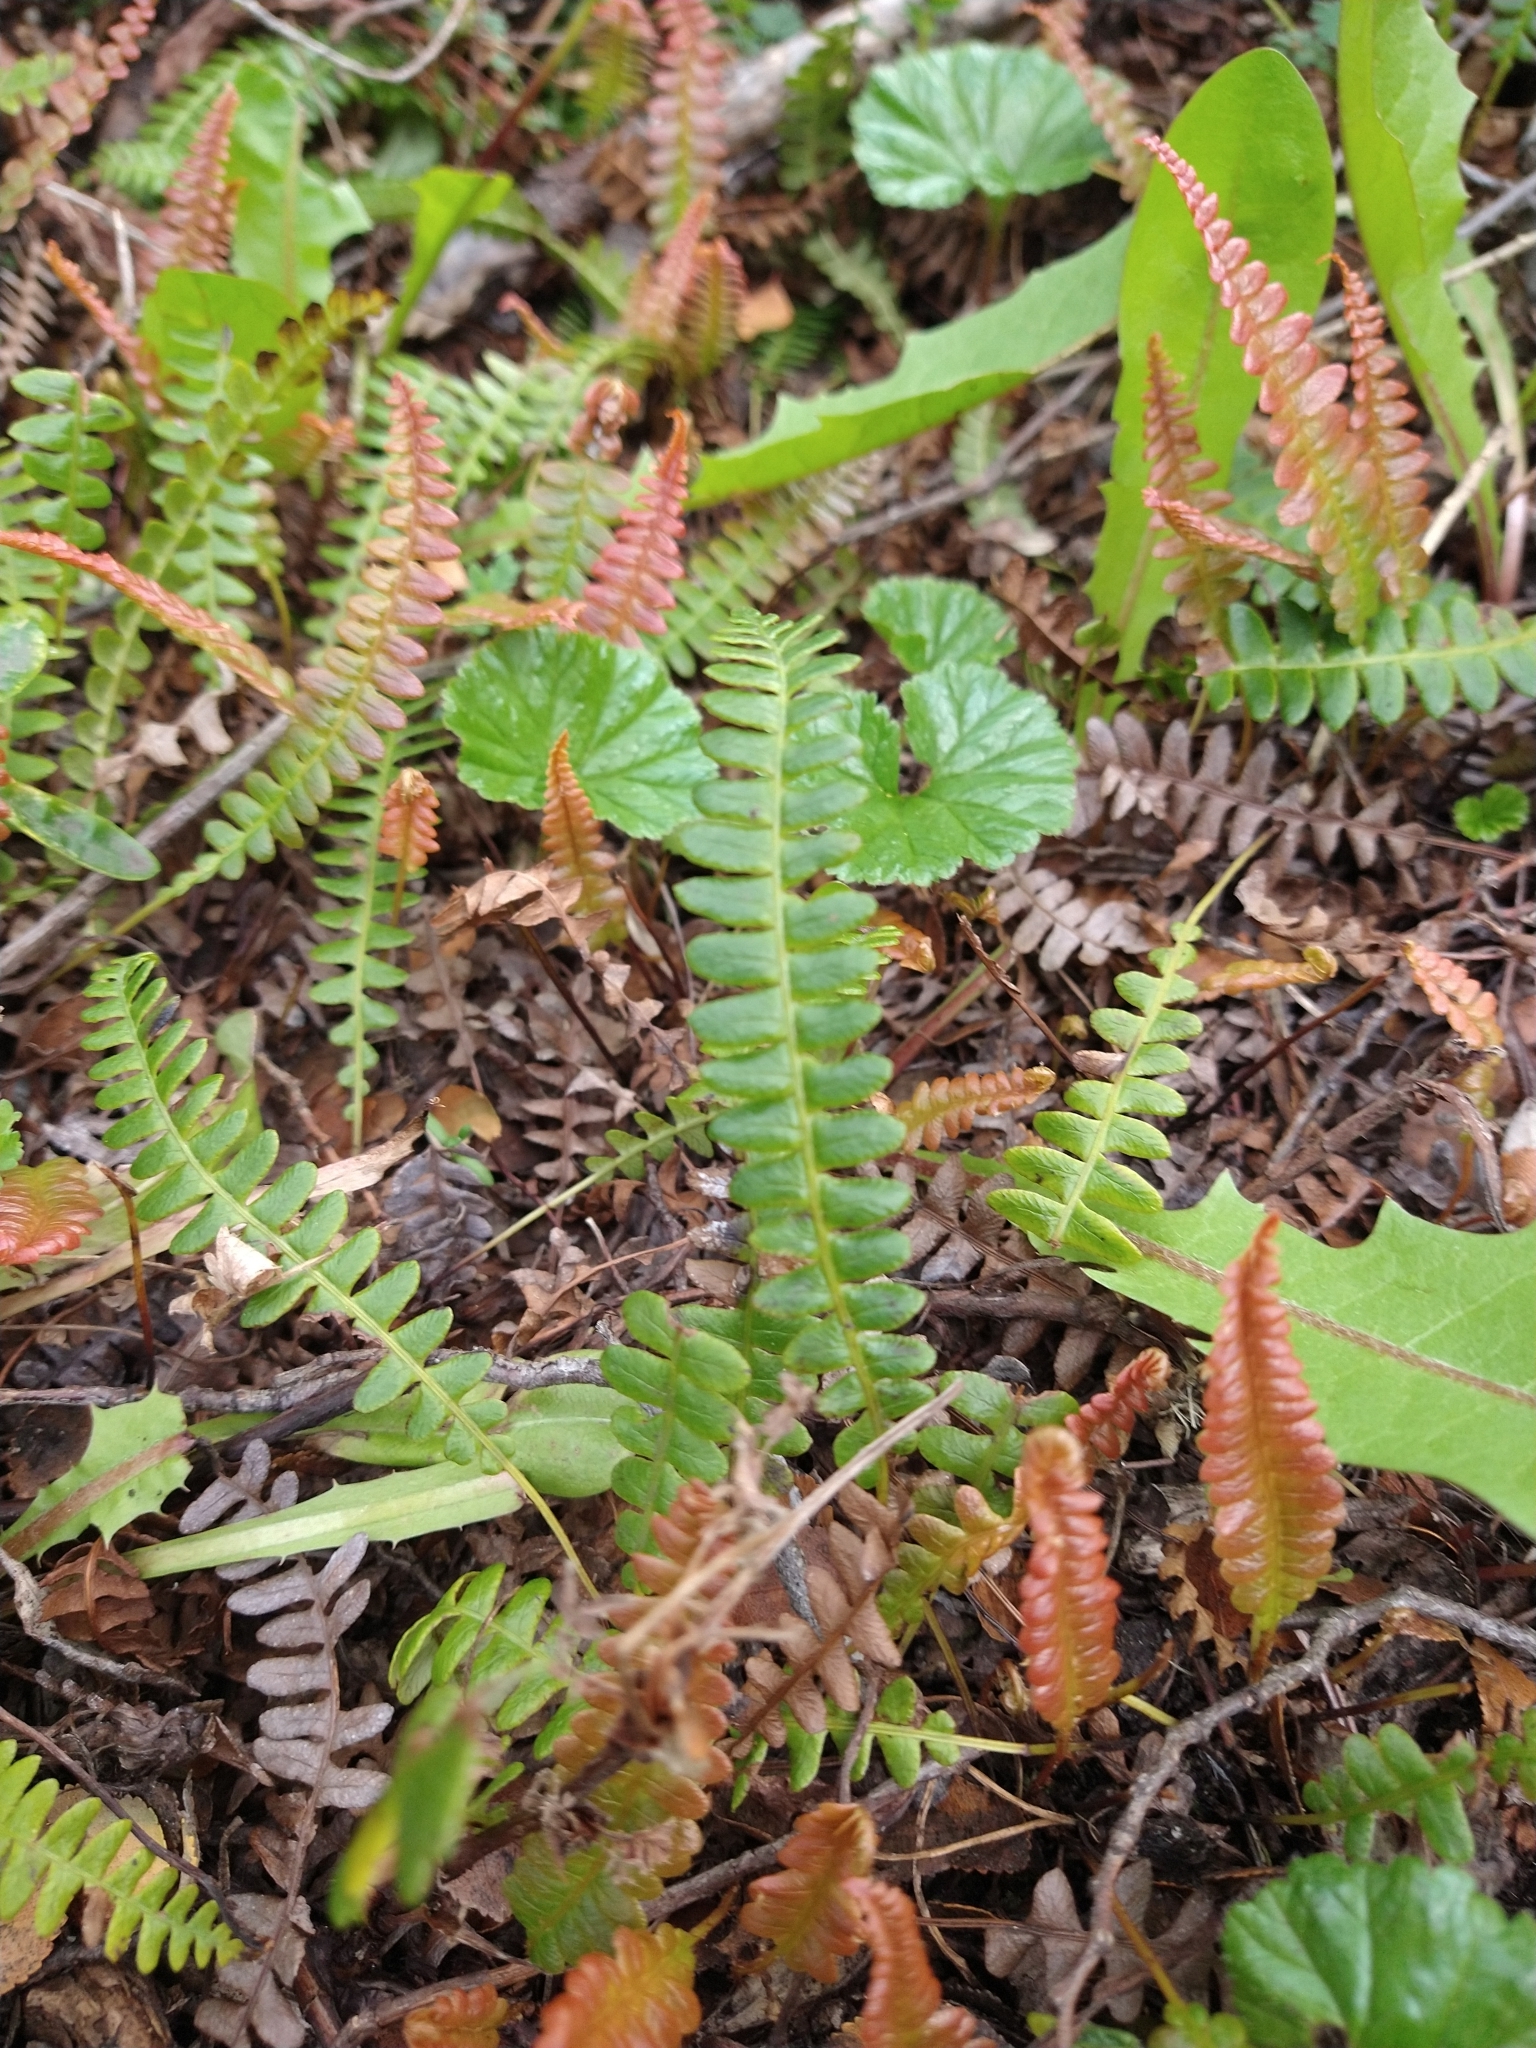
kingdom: Plantae
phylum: Tracheophyta
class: Polypodiopsida
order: Polypodiales
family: Blechnaceae
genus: Austroblechnum
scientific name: Austroblechnum penna-marina
